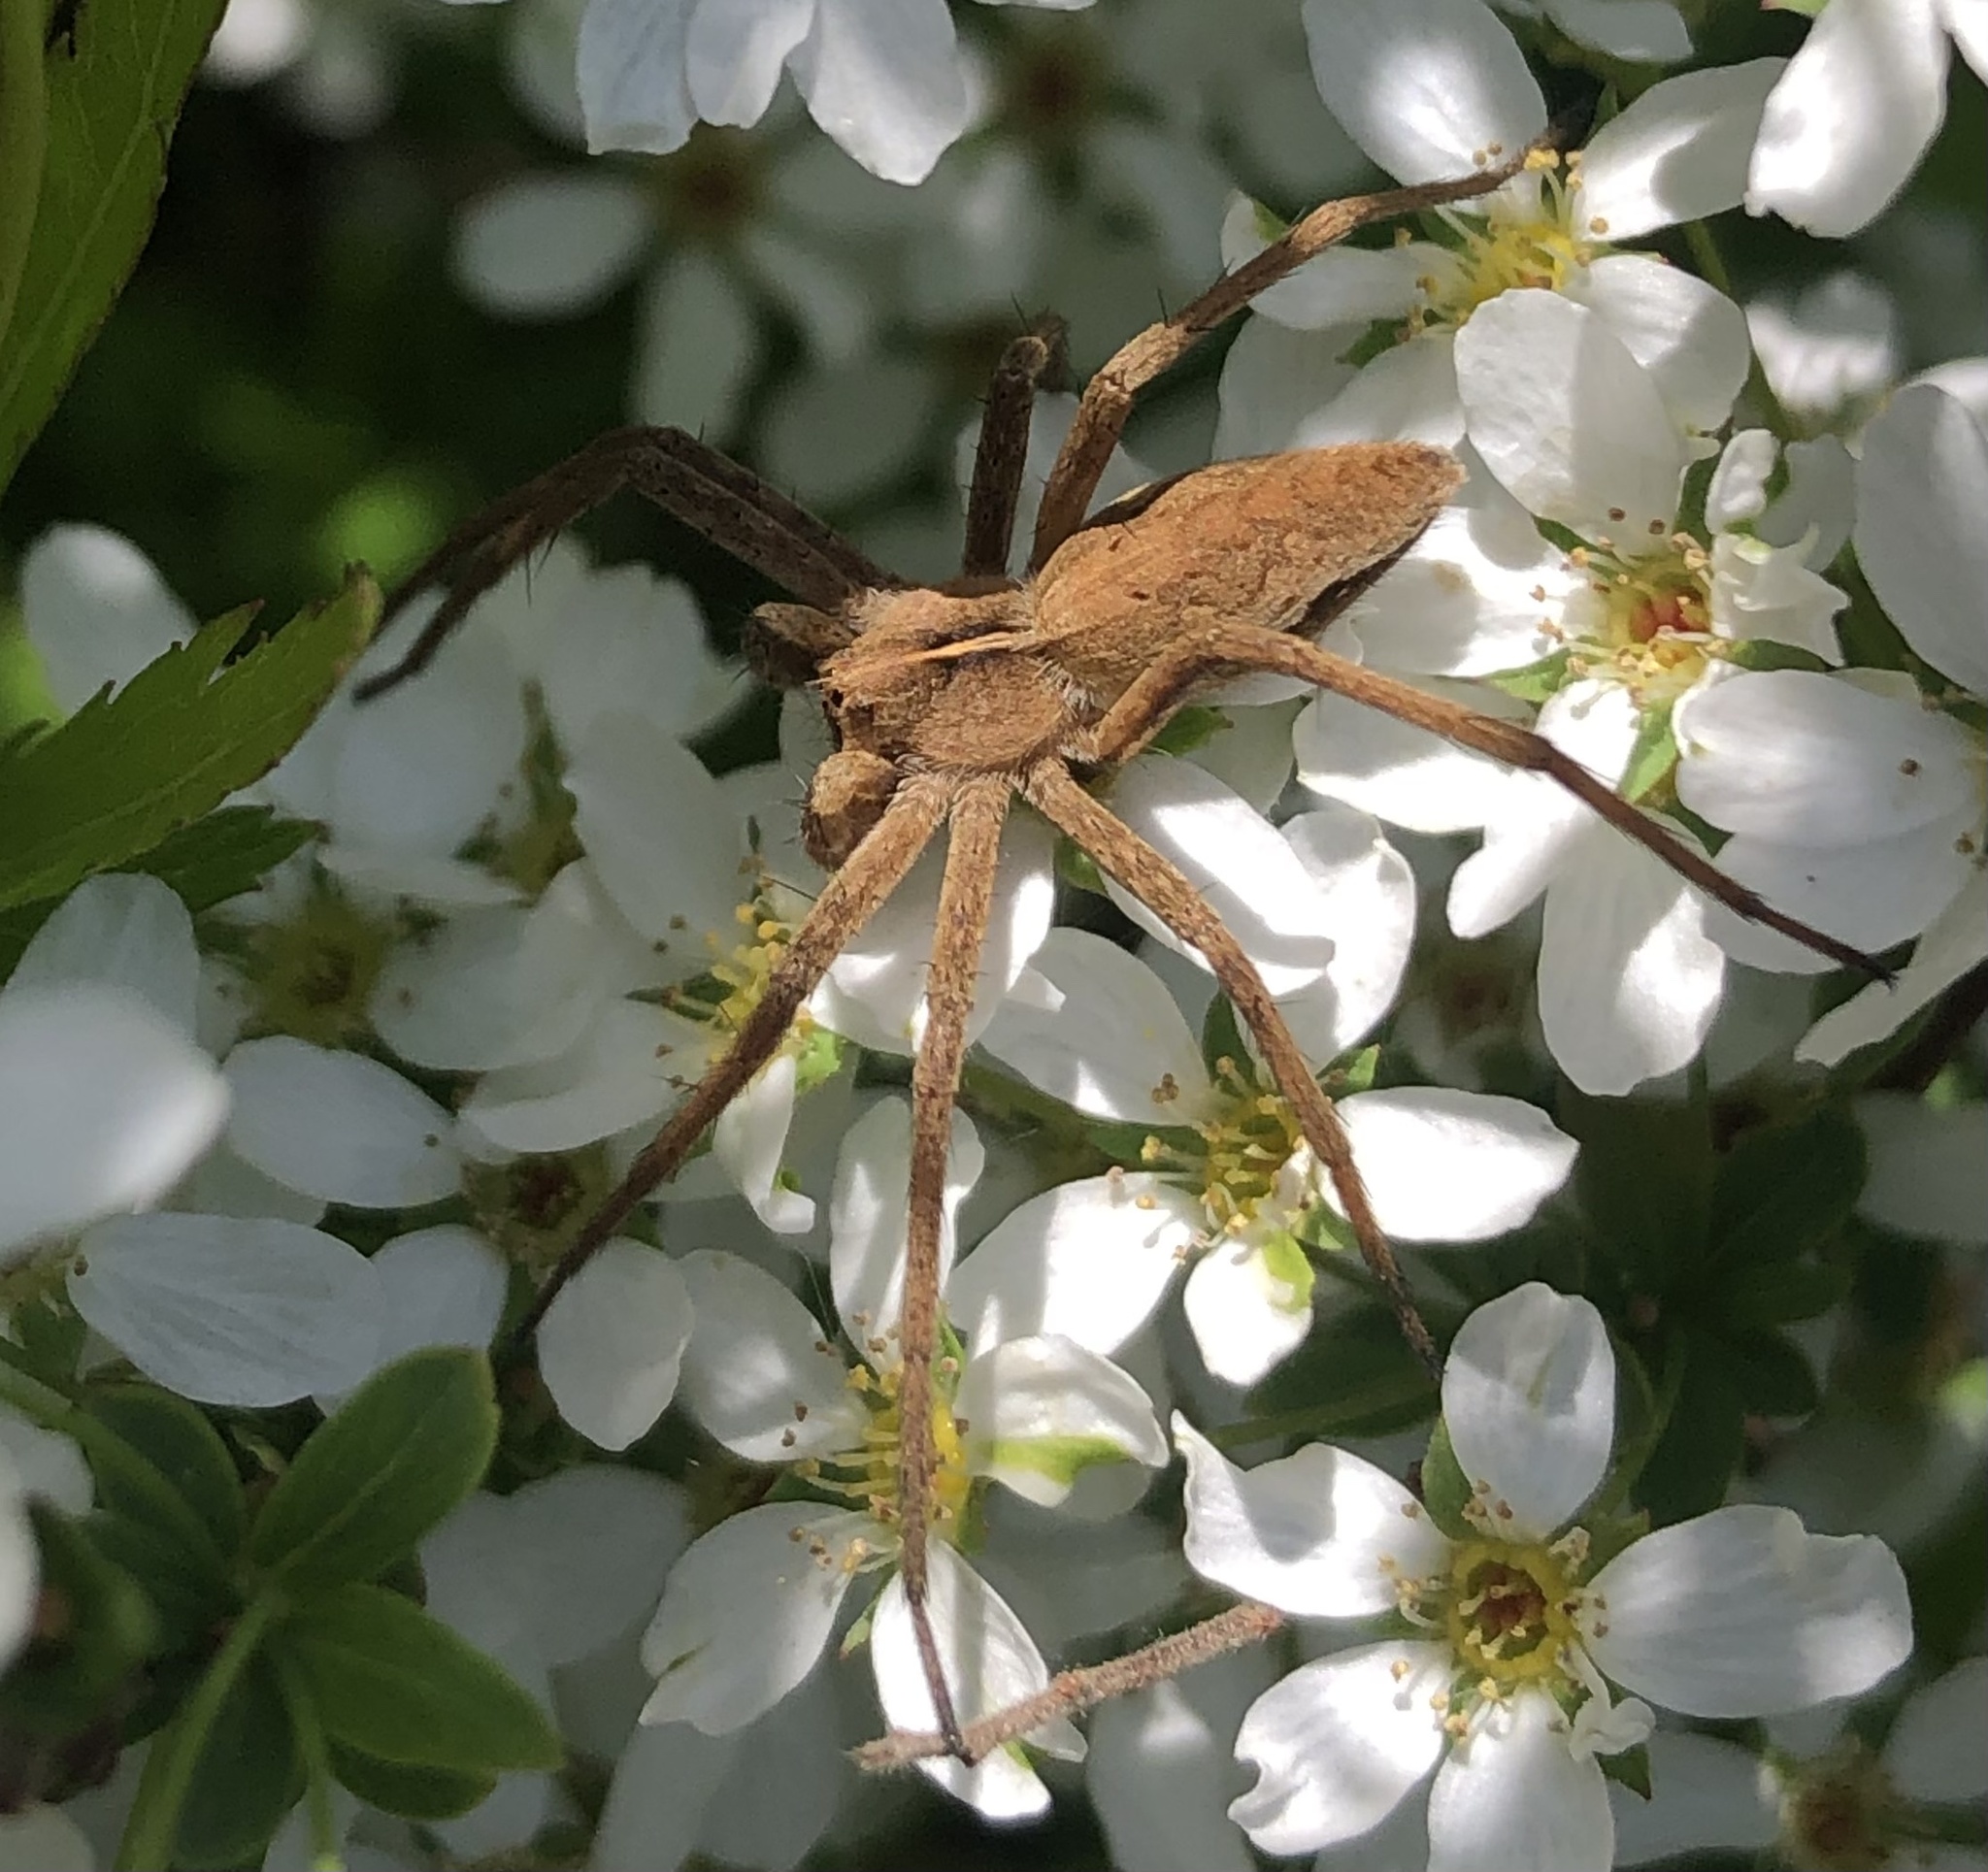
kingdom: Animalia
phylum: Arthropoda
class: Arachnida
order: Araneae
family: Pisauridae
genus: Pisaura
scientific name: Pisaura mirabilis
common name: Tent spider
